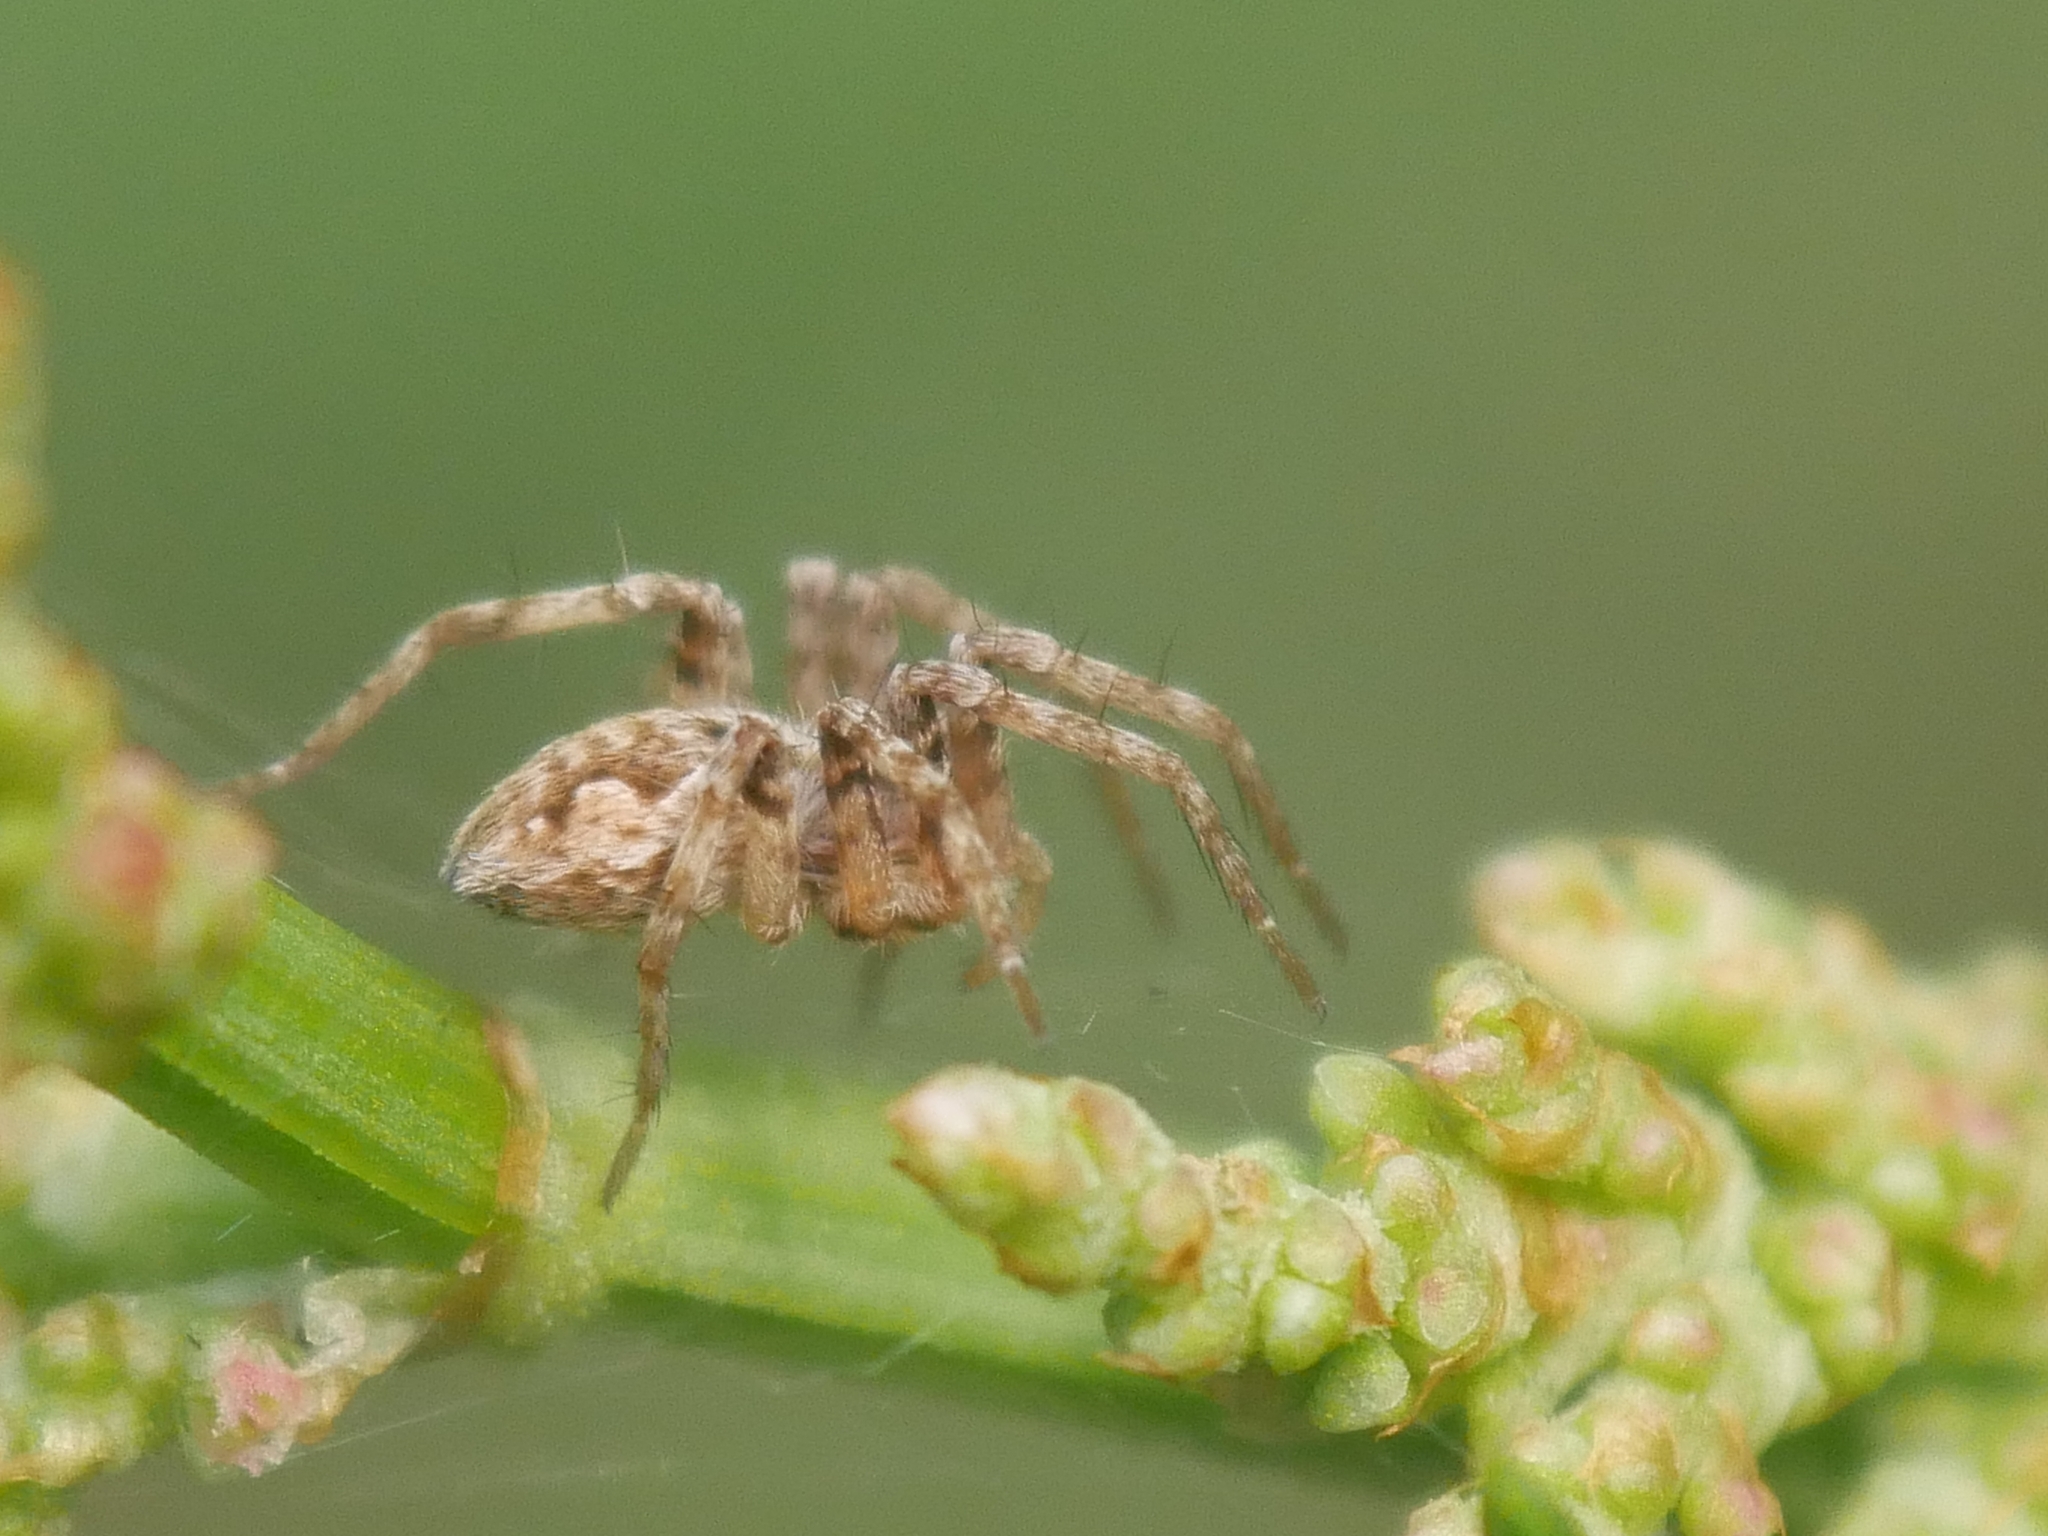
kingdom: Animalia
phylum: Arthropoda
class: Arachnida
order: Araneae
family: Pisauridae
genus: Pisaura
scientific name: Pisaura mirabilis
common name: Tent spider
